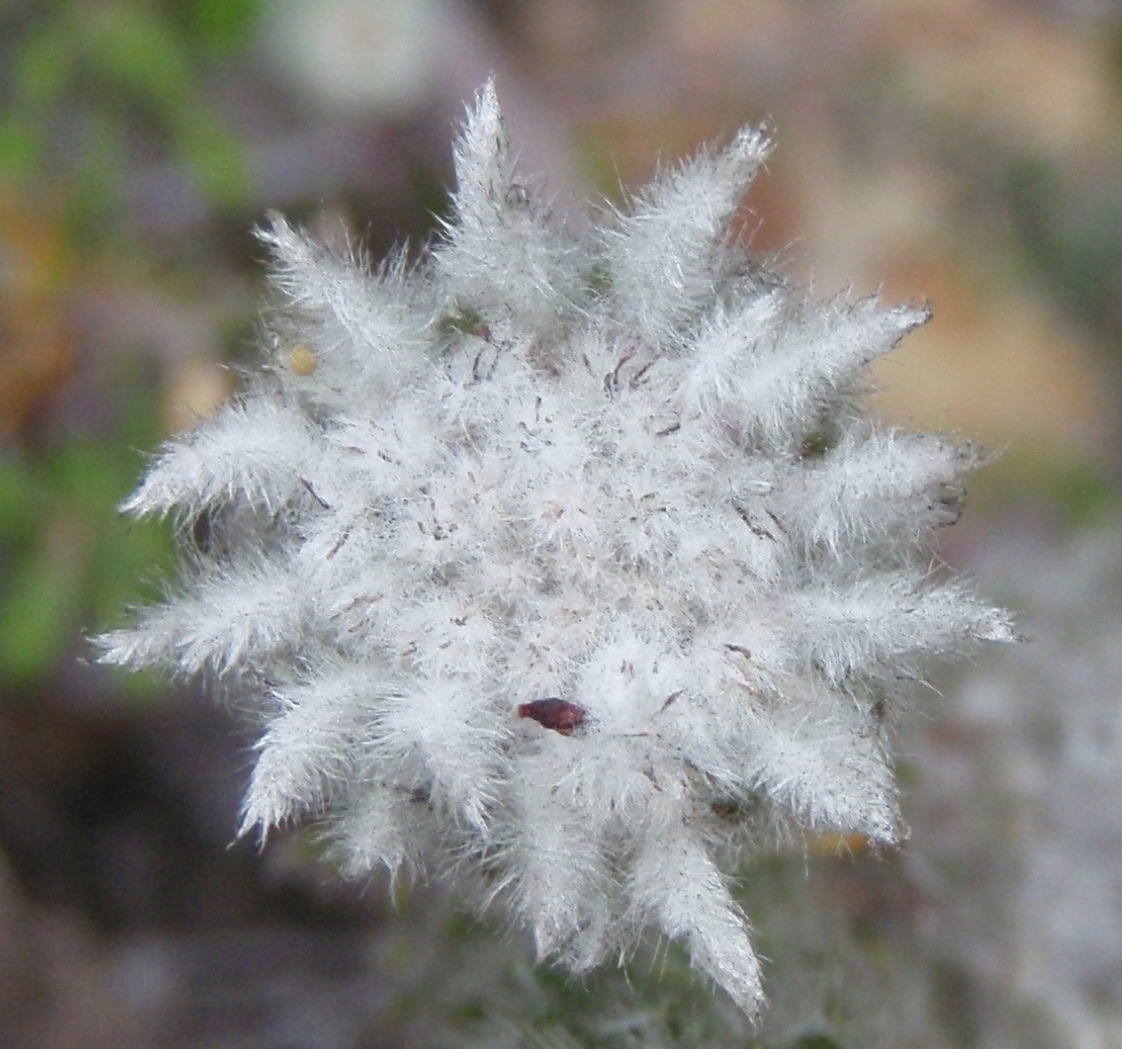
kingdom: Plantae
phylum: Tracheophyta
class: Magnoliopsida
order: Rosales
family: Rhamnaceae
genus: Phylica
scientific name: Phylica meyeri
